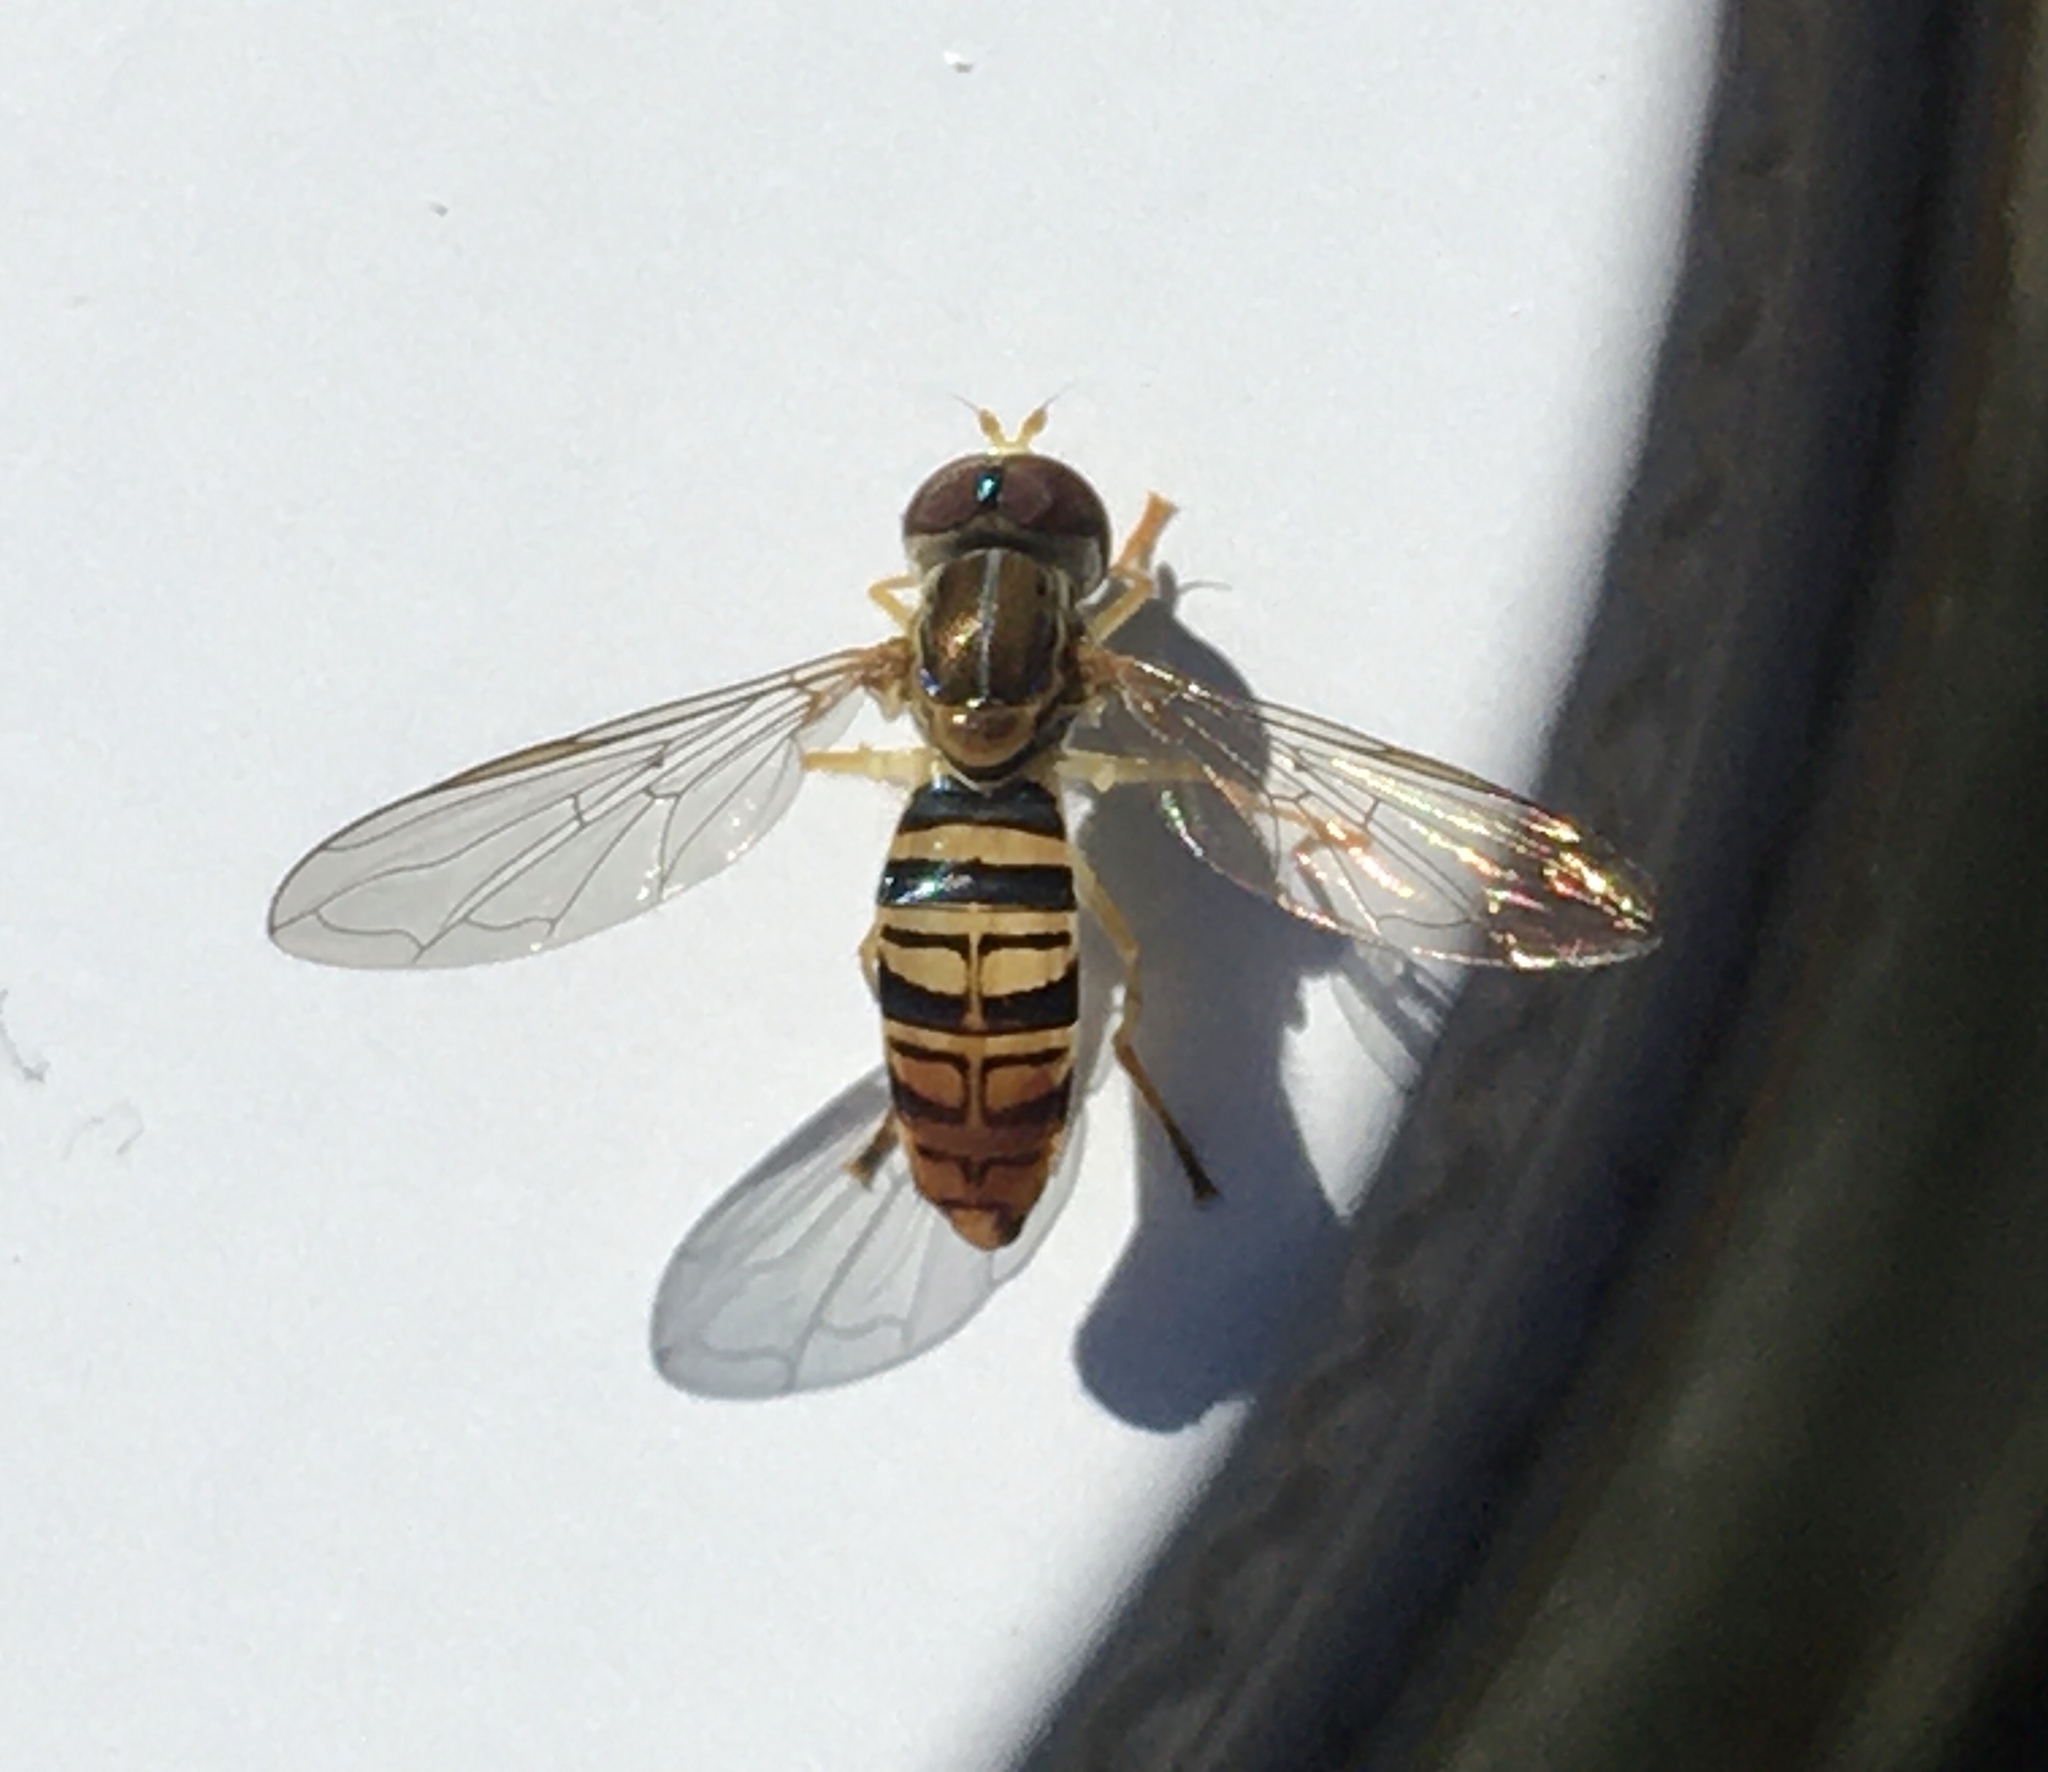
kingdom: Animalia
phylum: Arthropoda
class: Insecta
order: Diptera
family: Syrphidae
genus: Toxomerus
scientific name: Toxomerus politus
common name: Maize calligrapher
